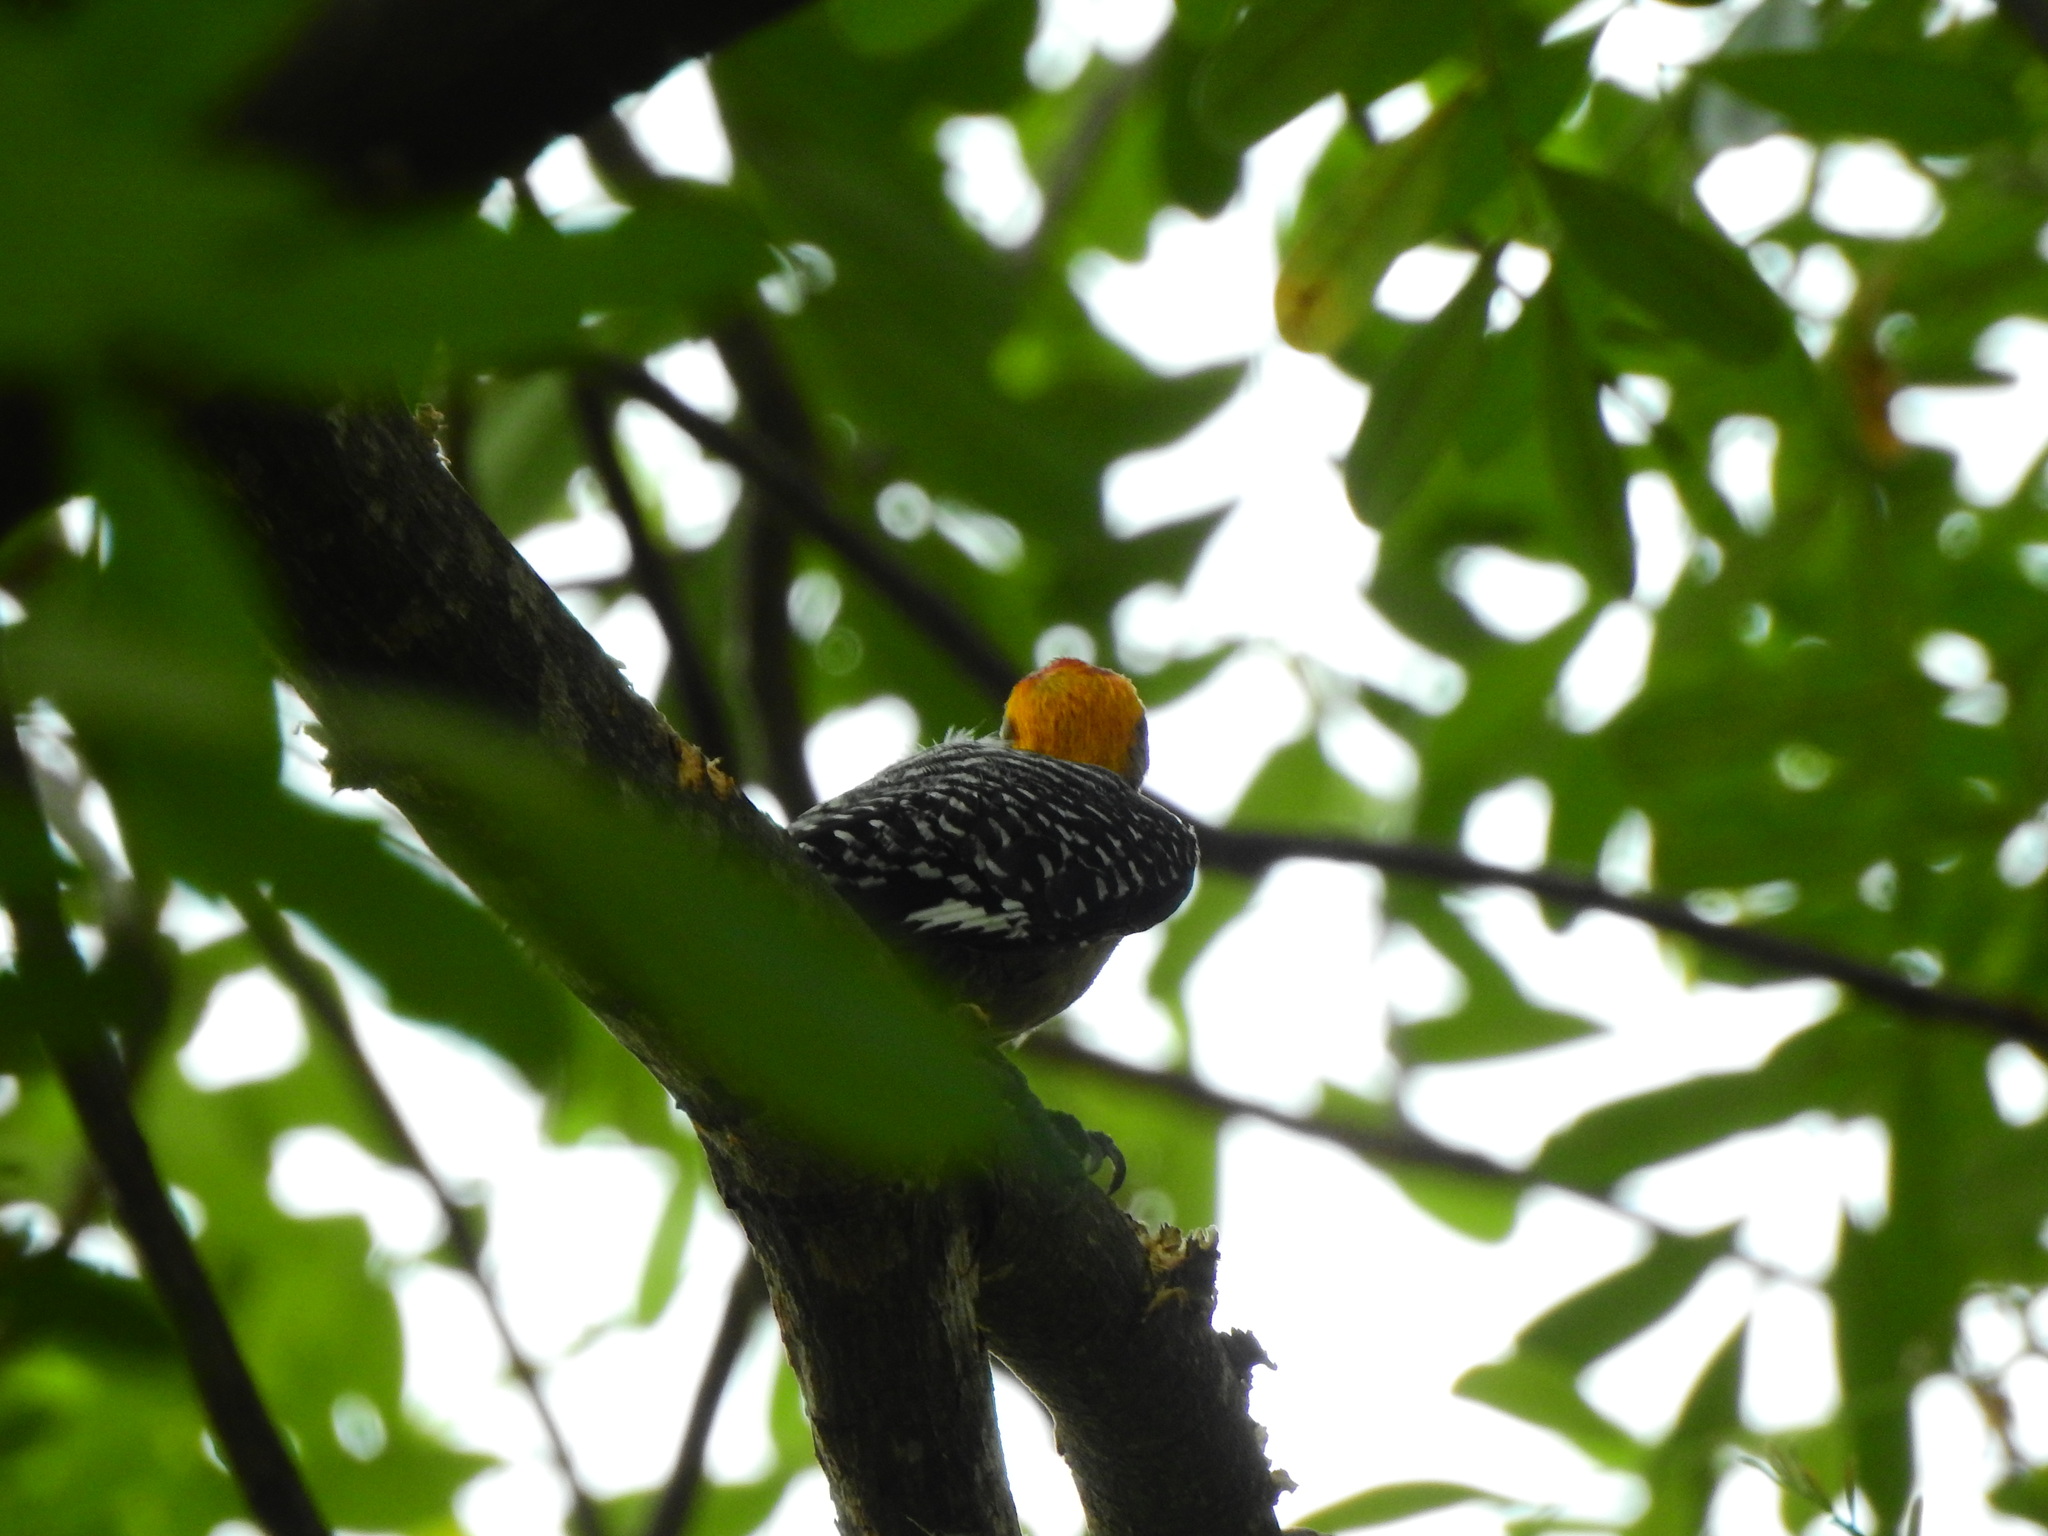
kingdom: Animalia
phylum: Chordata
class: Aves
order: Piciformes
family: Picidae
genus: Melanerpes
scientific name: Melanerpes chrysogenys
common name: Golden-cheeked woodpecker
